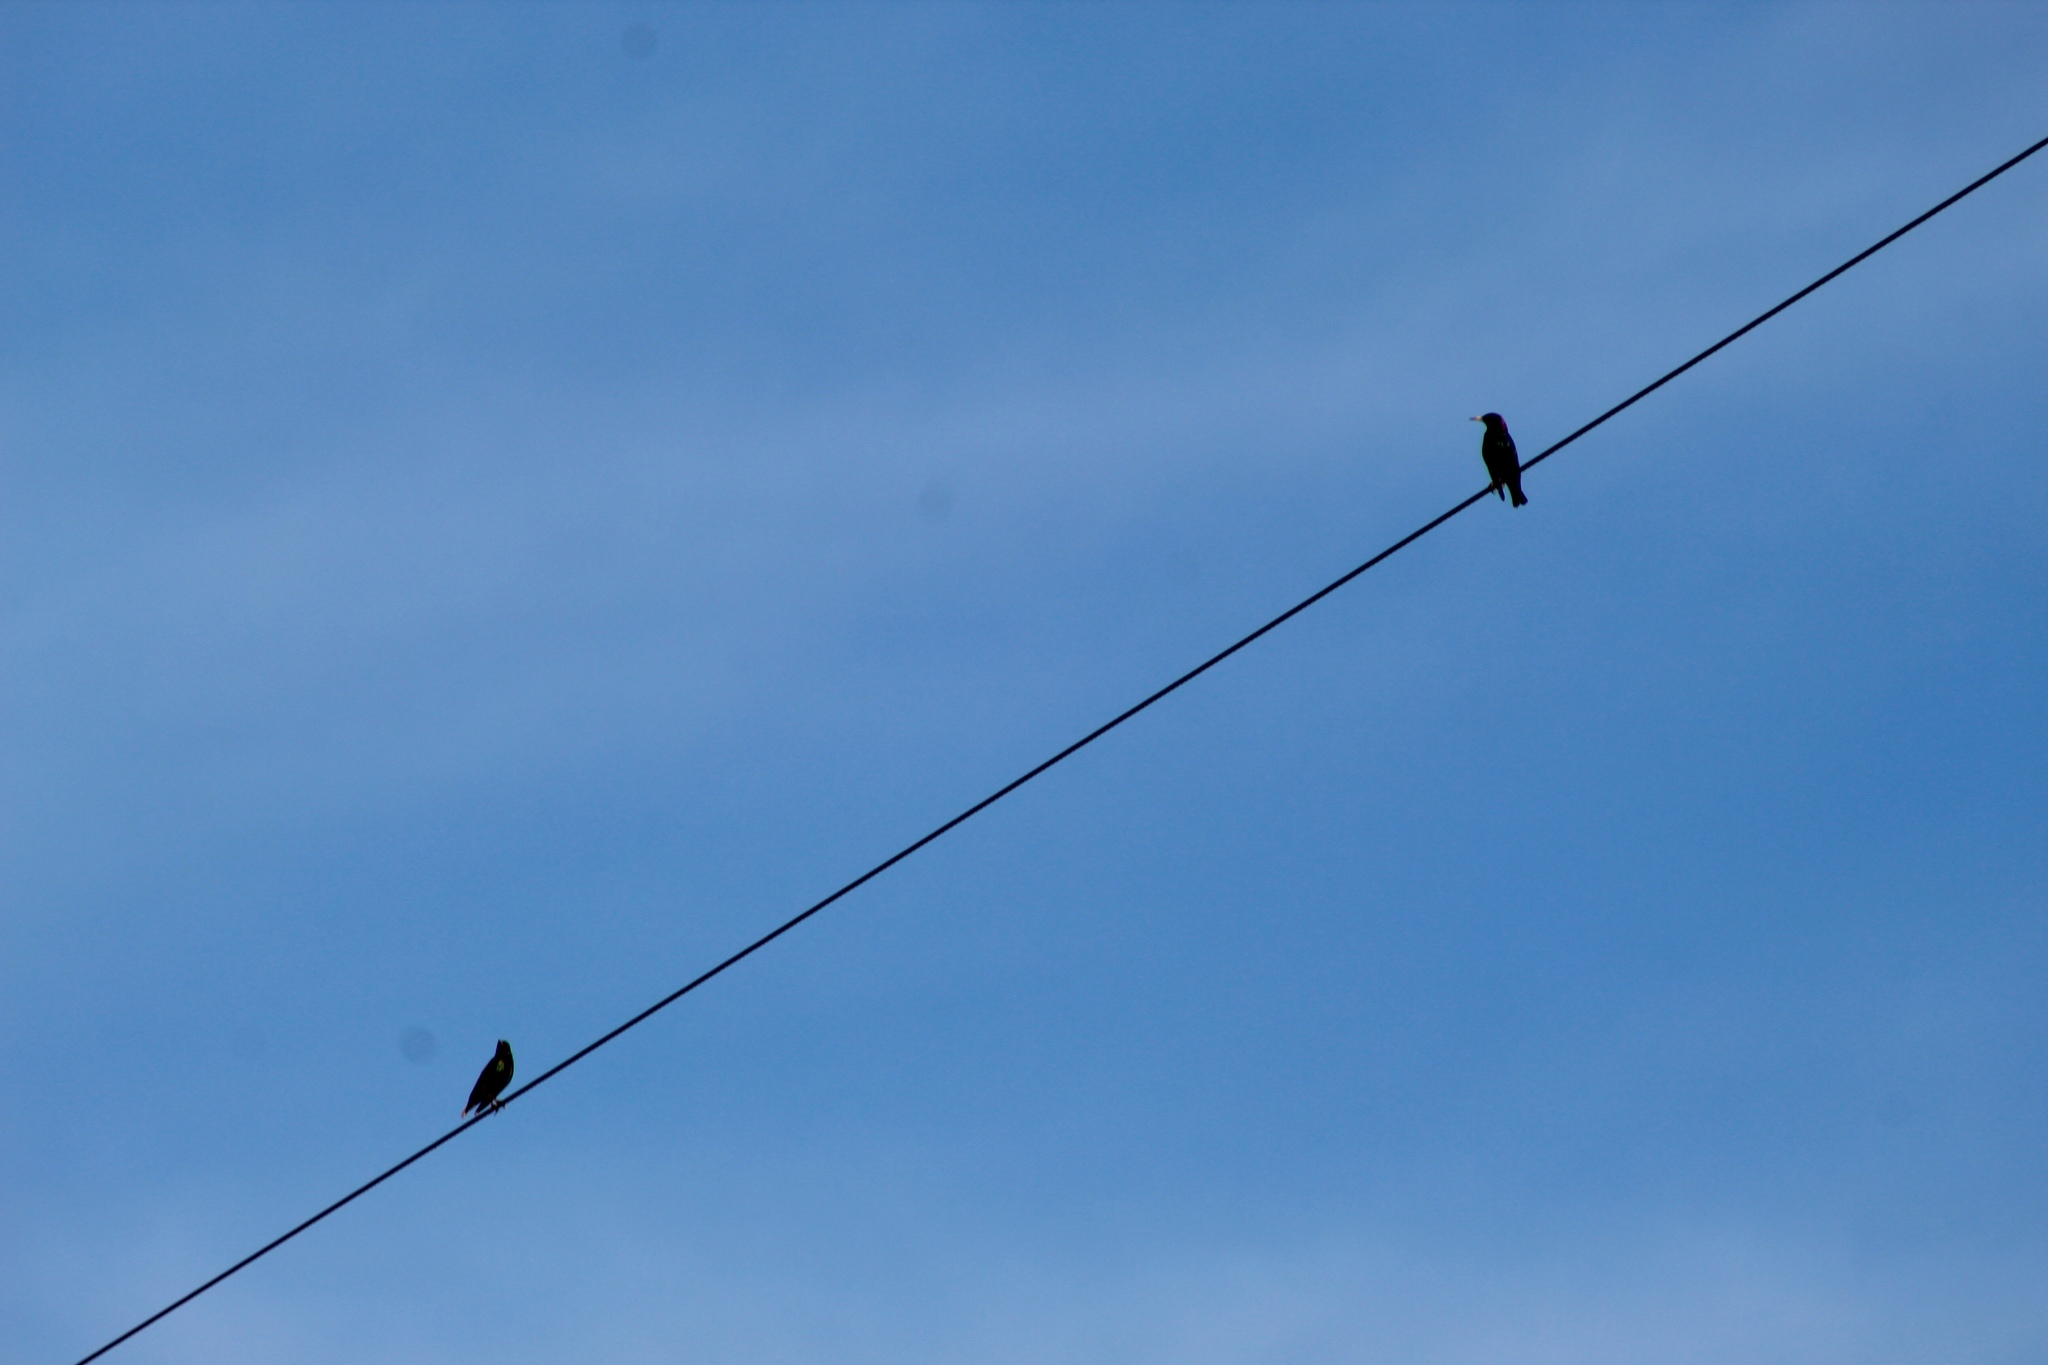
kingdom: Animalia
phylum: Chordata
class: Aves
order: Passeriformes
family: Sturnidae
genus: Sturnus
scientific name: Sturnus vulgaris
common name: Common starling
